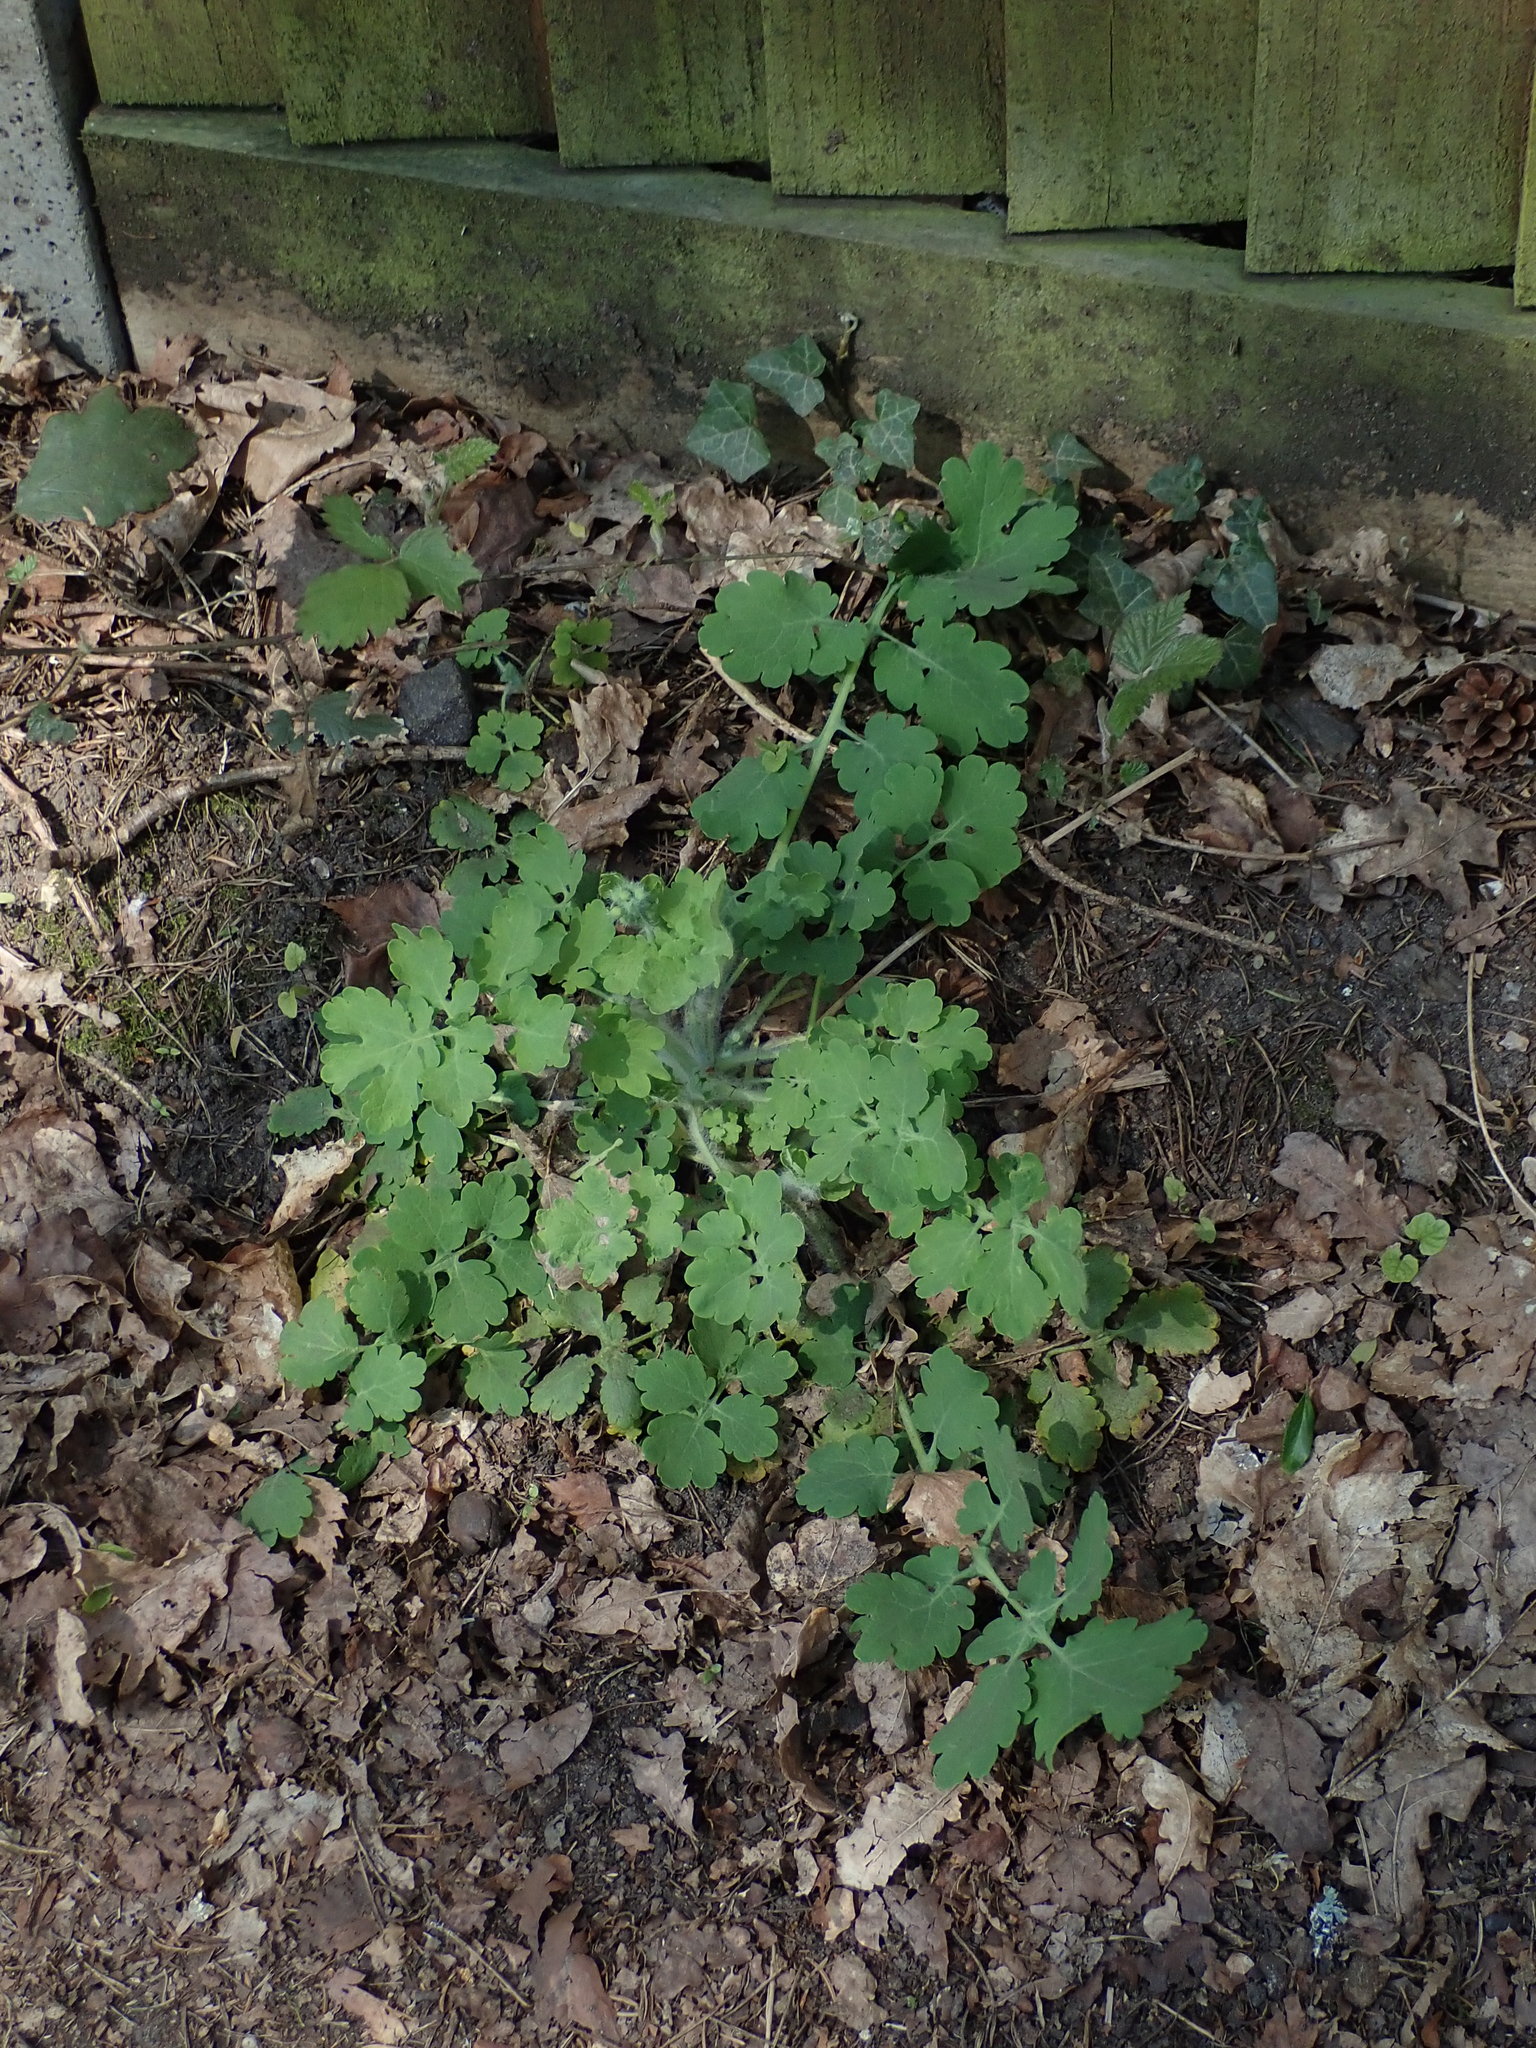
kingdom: Plantae
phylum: Tracheophyta
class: Magnoliopsida
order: Ranunculales
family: Papaveraceae
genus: Chelidonium
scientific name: Chelidonium majus
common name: Greater celandine
